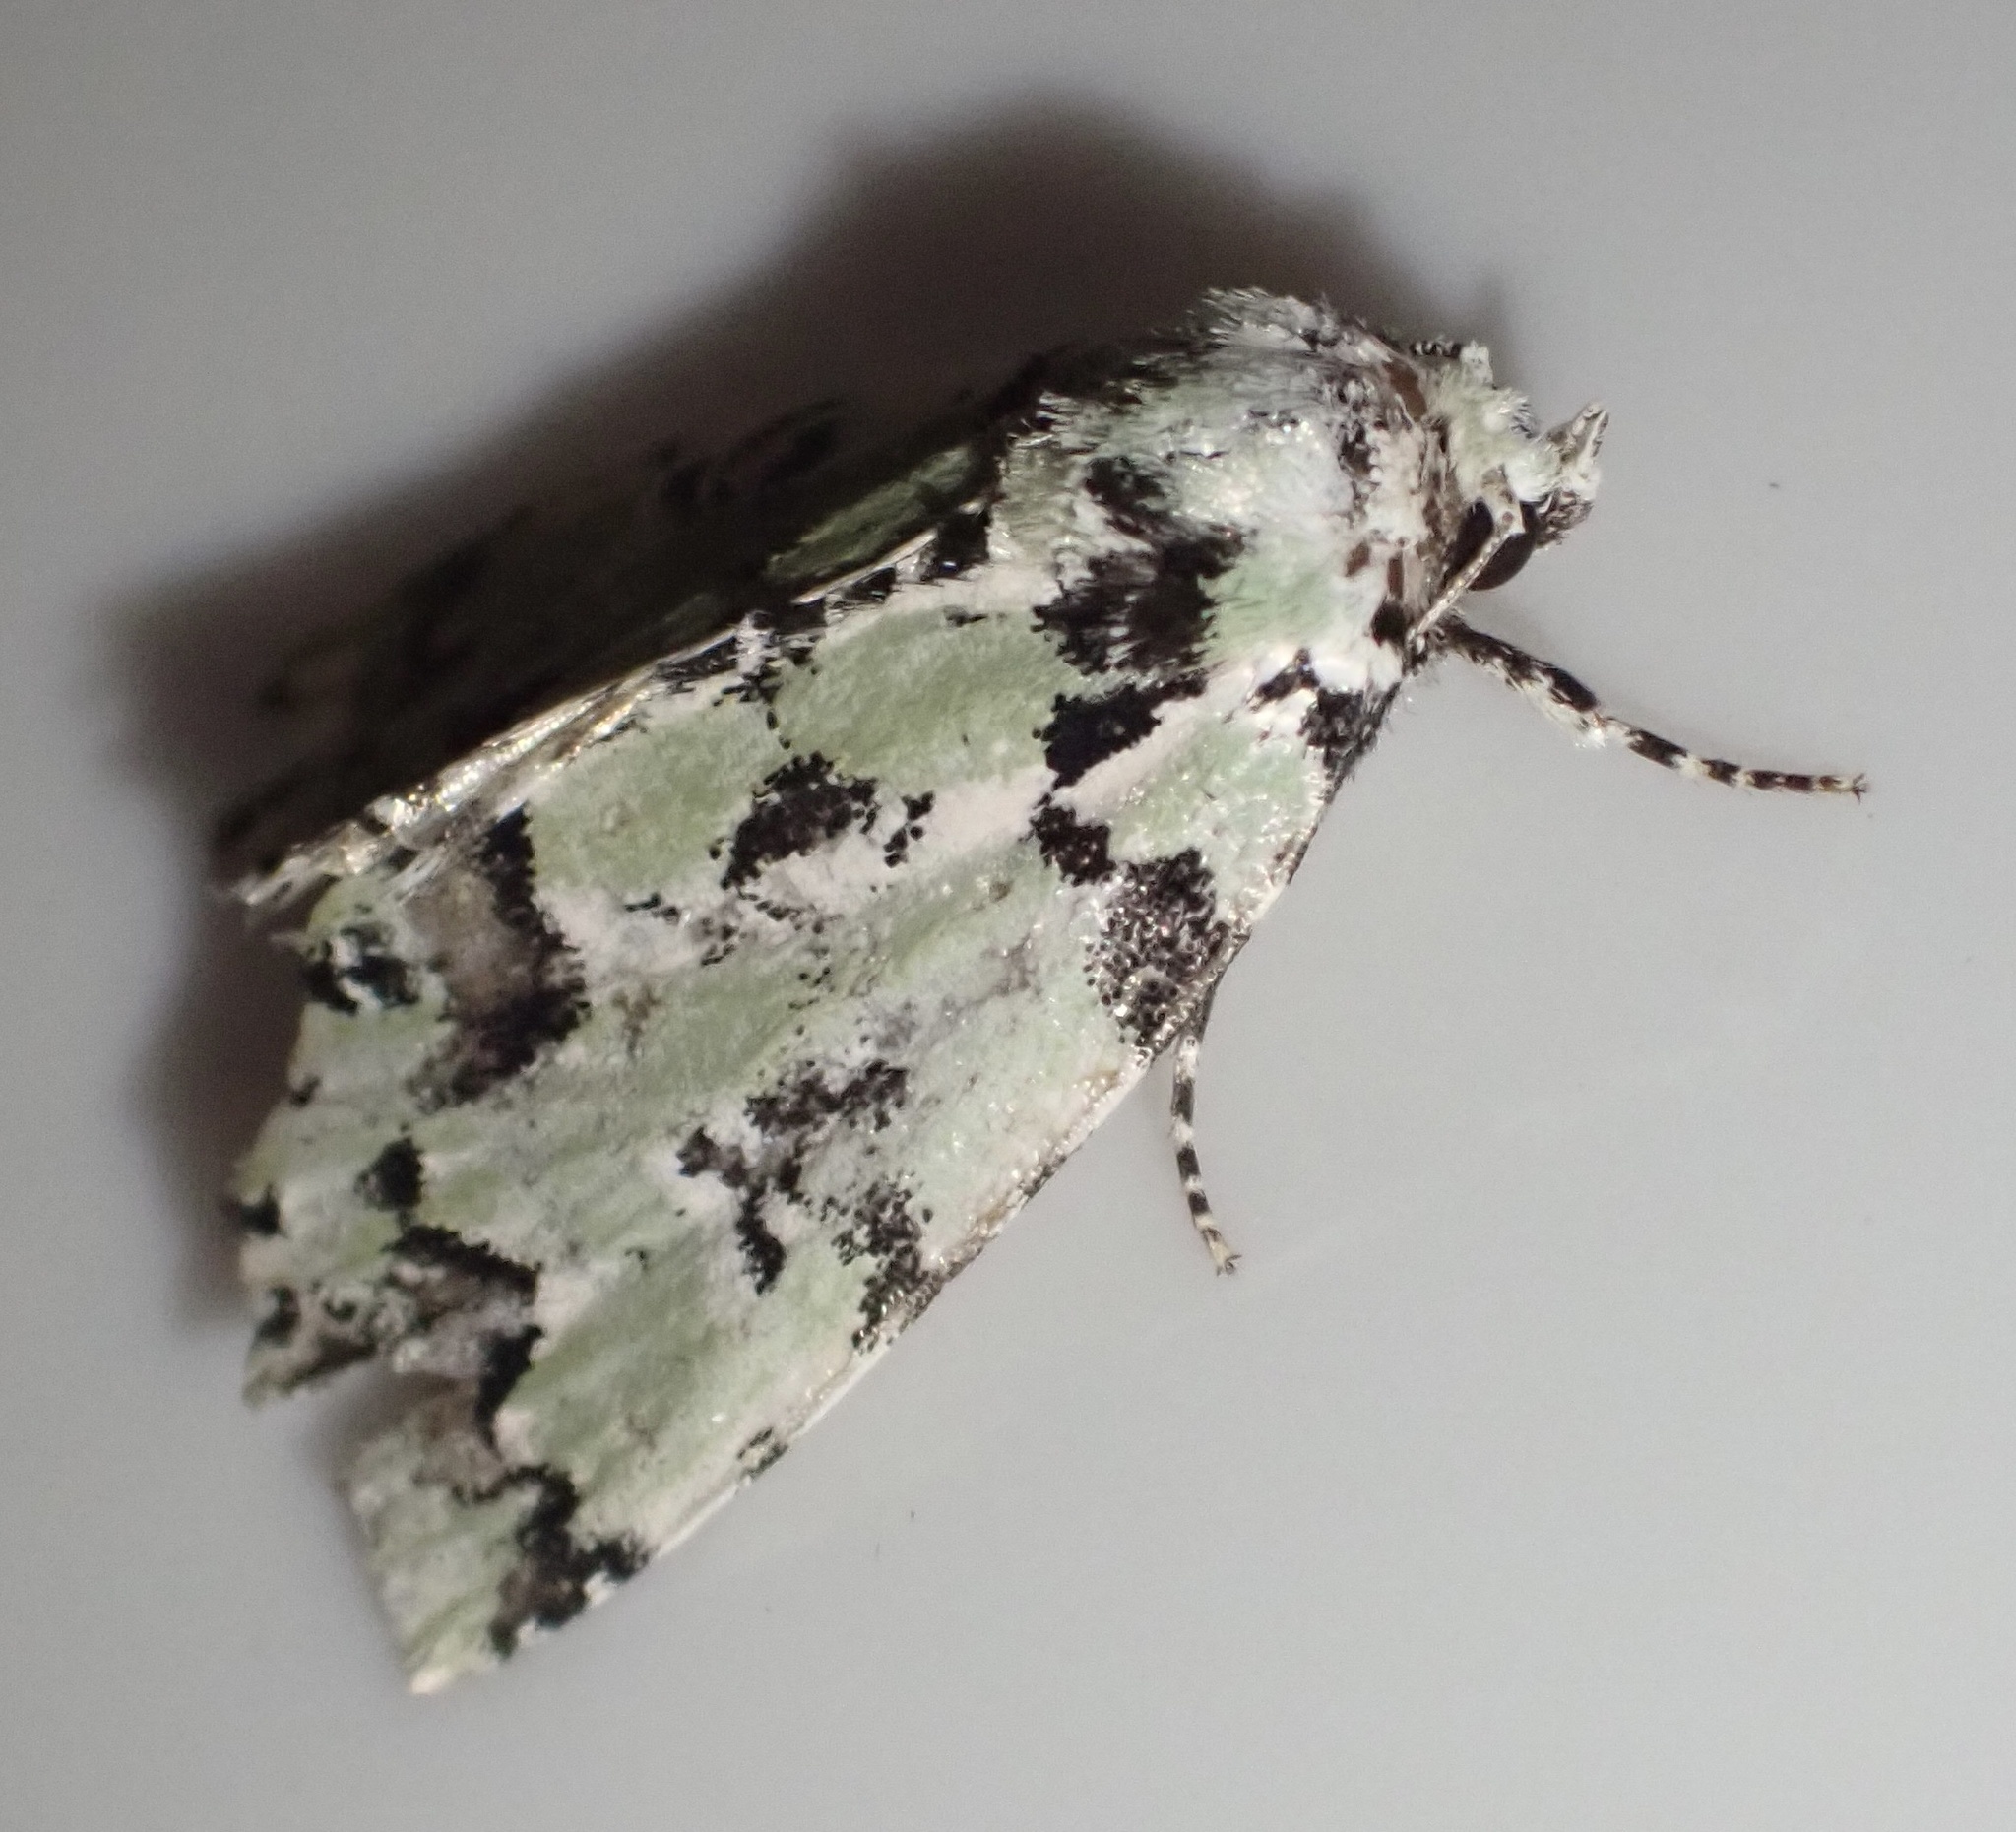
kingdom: Animalia
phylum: Arthropoda
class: Insecta
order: Lepidoptera
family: Noctuidae
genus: Moma
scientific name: Moma alpium
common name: Scarce merveille du jour
